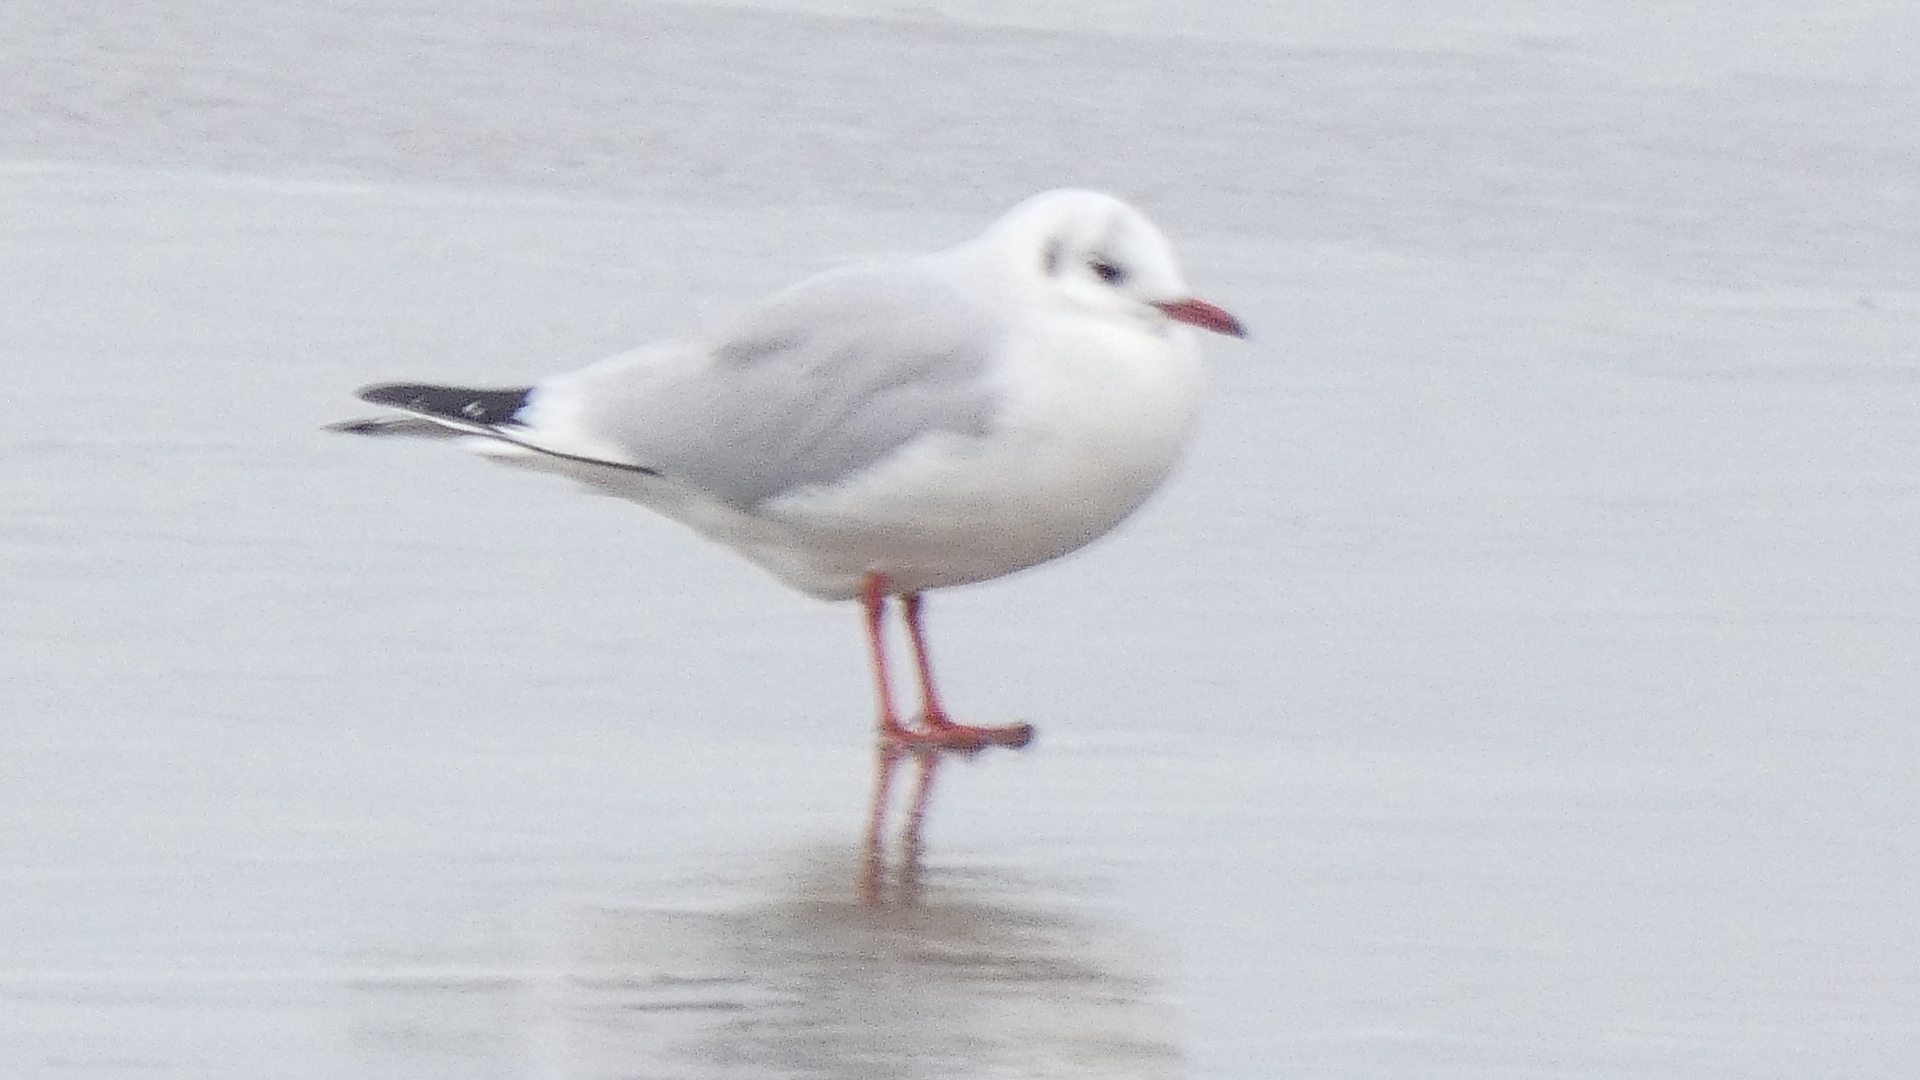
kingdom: Animalia
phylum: Chordata
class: Aves
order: Charadriiformes
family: Laridae
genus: Chroicocephalus
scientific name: Chroicocephalus ridibundus
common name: Black-headed gull
